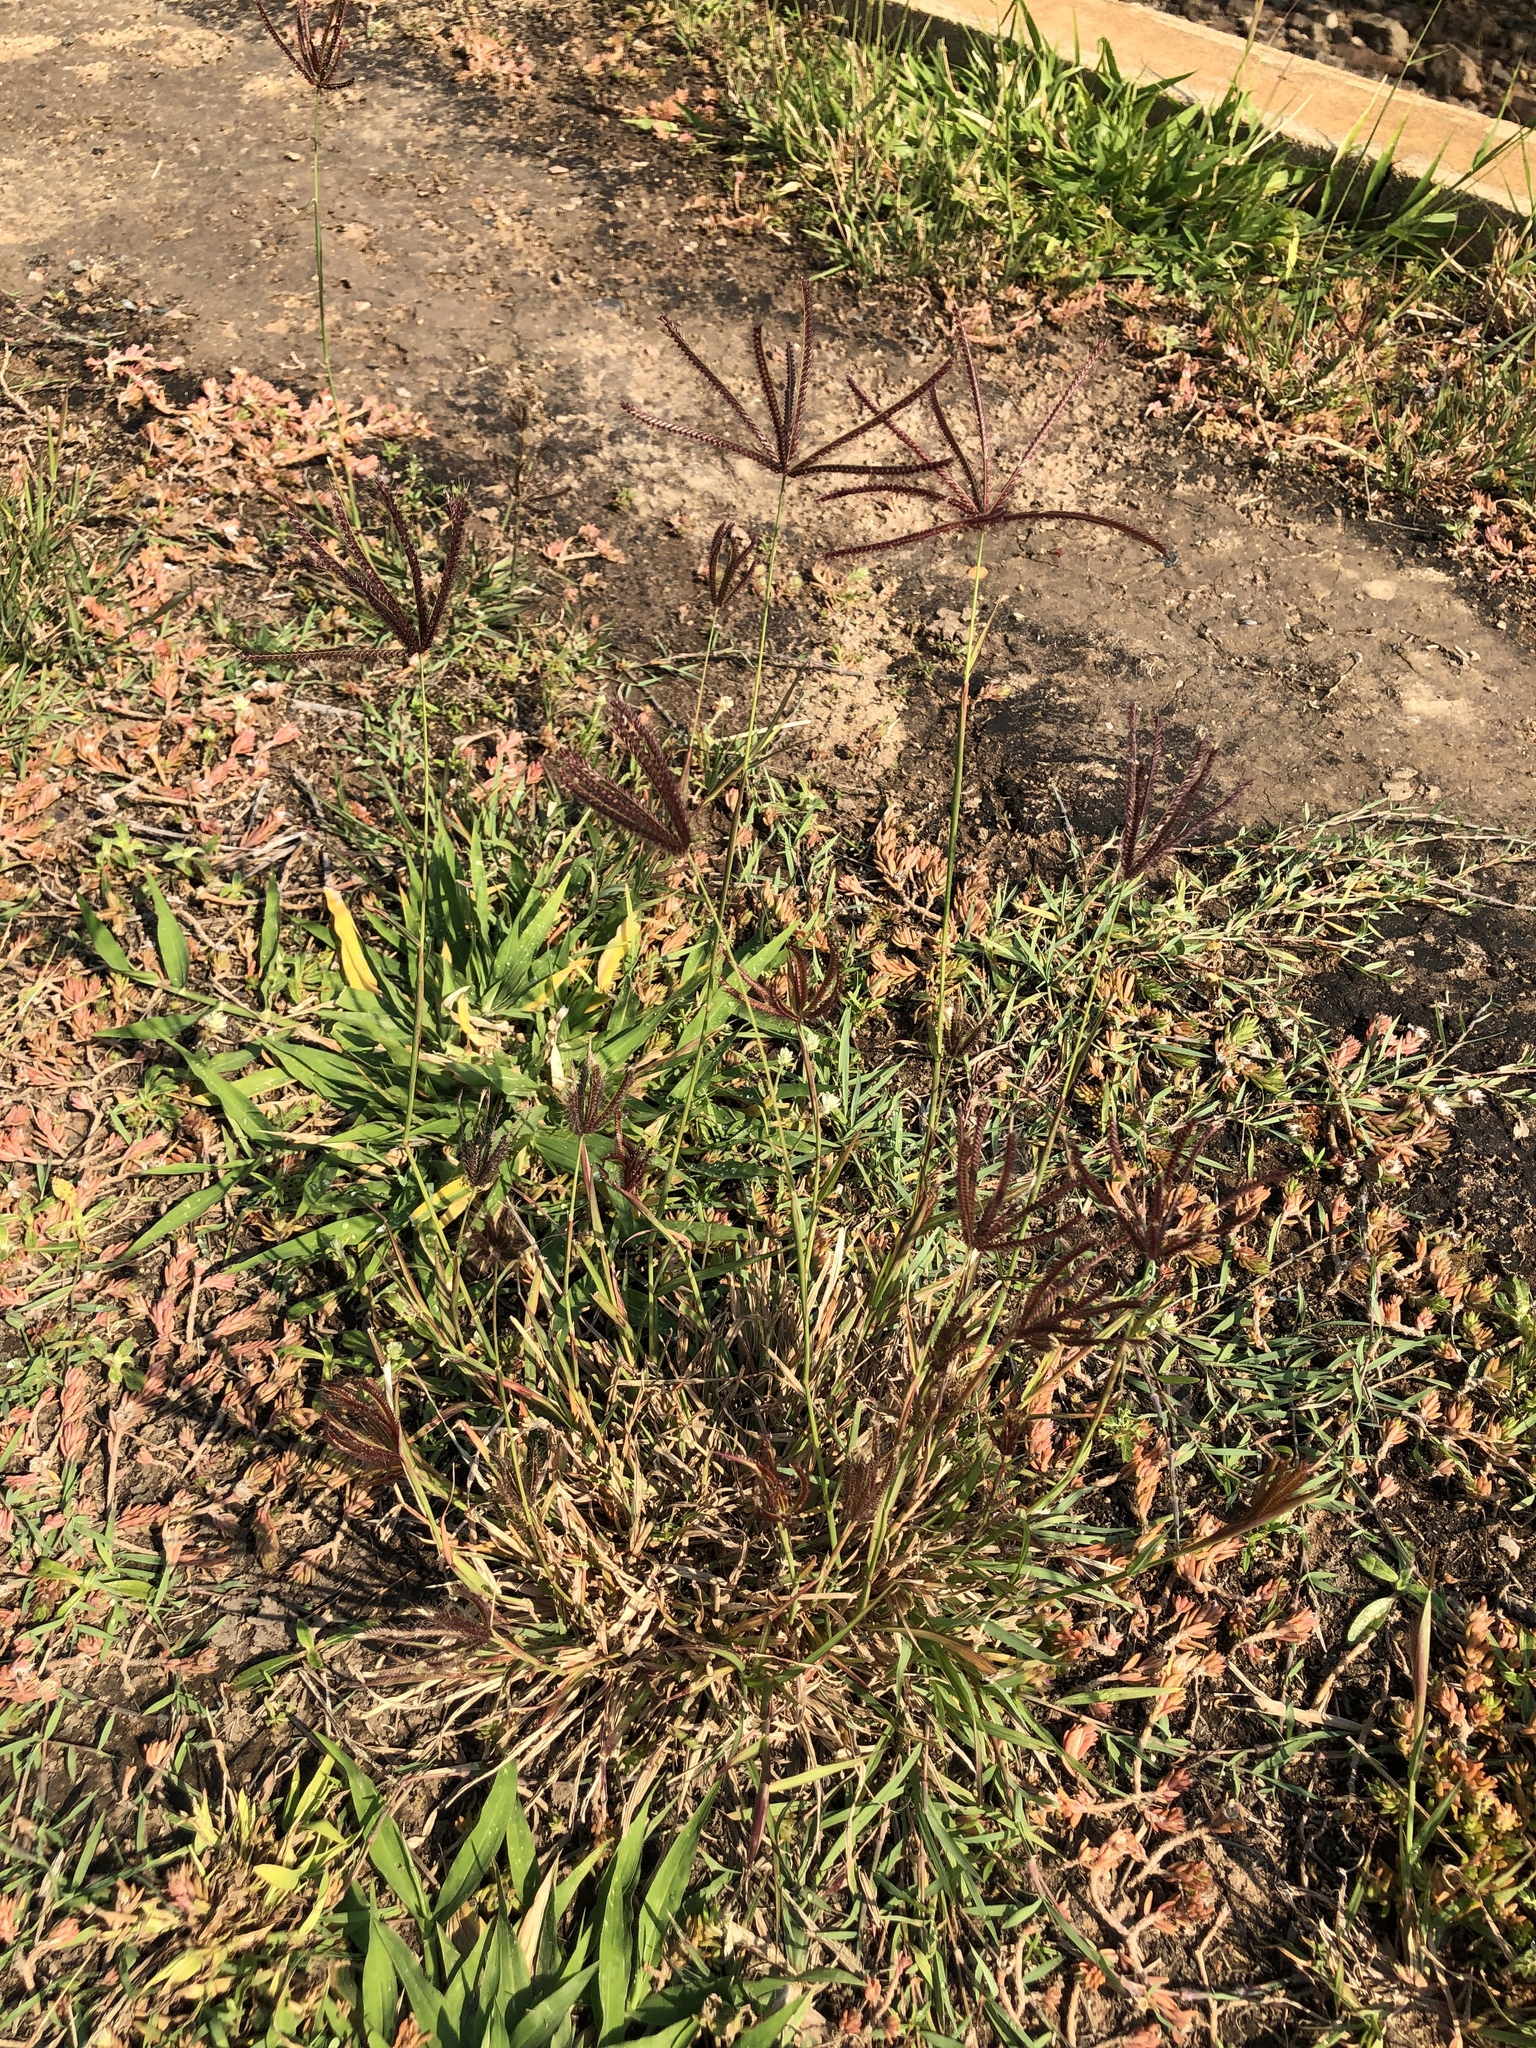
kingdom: Plantae
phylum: Tracheophyta
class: Liliopsida
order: Poales
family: Poaceae
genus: Chloris
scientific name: Chloris barbata
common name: Swollen fingergrass
